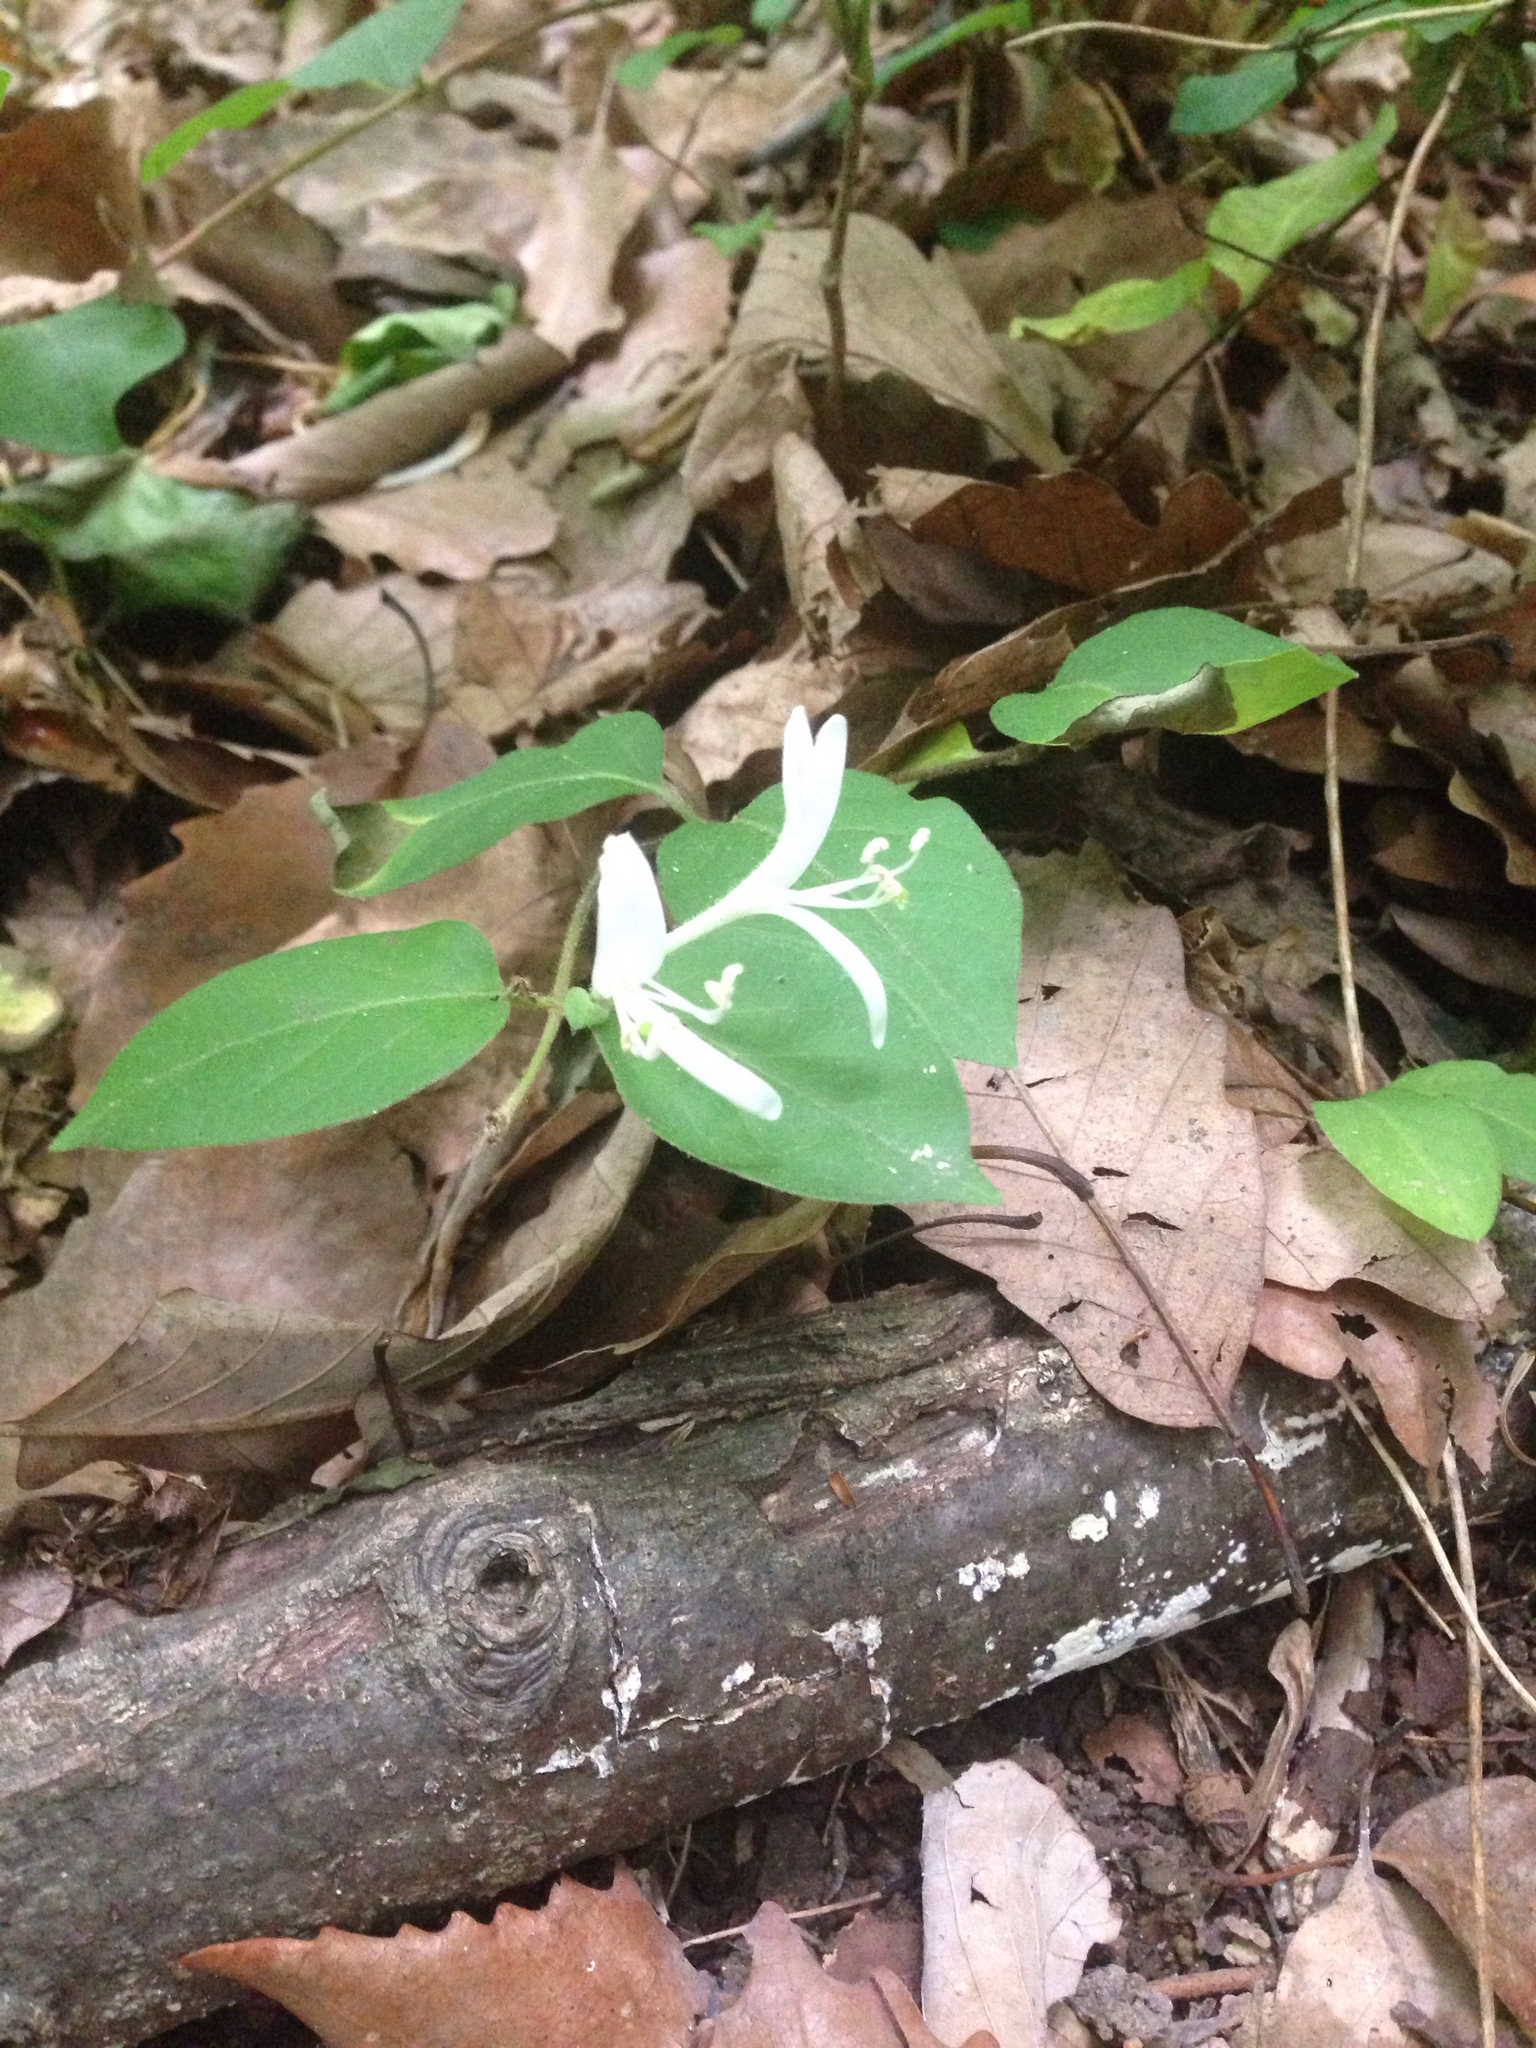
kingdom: Plantae
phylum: Tracheophyta
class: Magnoliopsida
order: Dipsacales
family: Caprifoliaceae
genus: Lonicera
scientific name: Lonicera japonica
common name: Japanese honeysuckle
